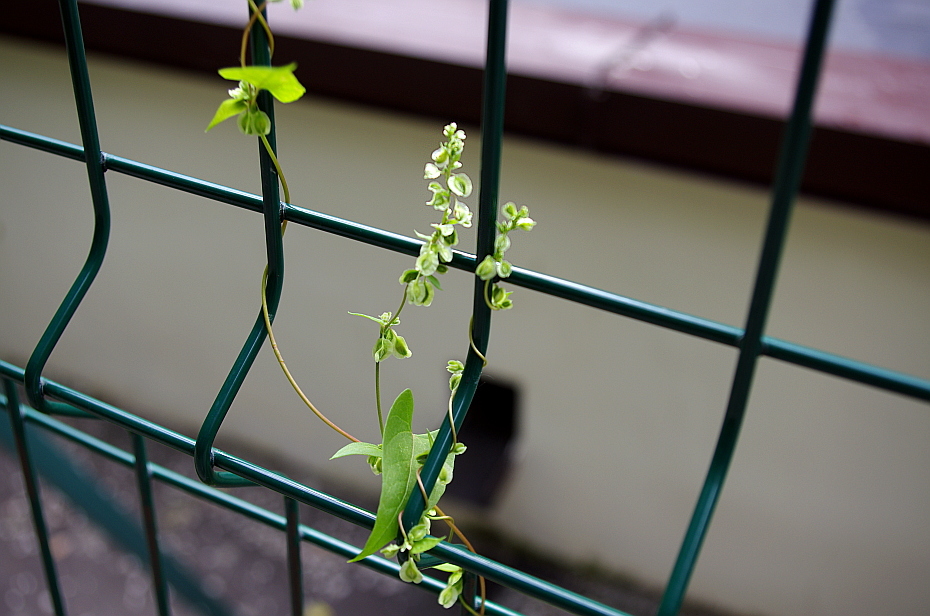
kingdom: Plantae
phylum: Tracheophyta
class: Magnoliopsida
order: Caryophyllales
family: Polygonaceae
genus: Fallopia
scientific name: Fallopia dumetorum
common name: Copse-bindweed
